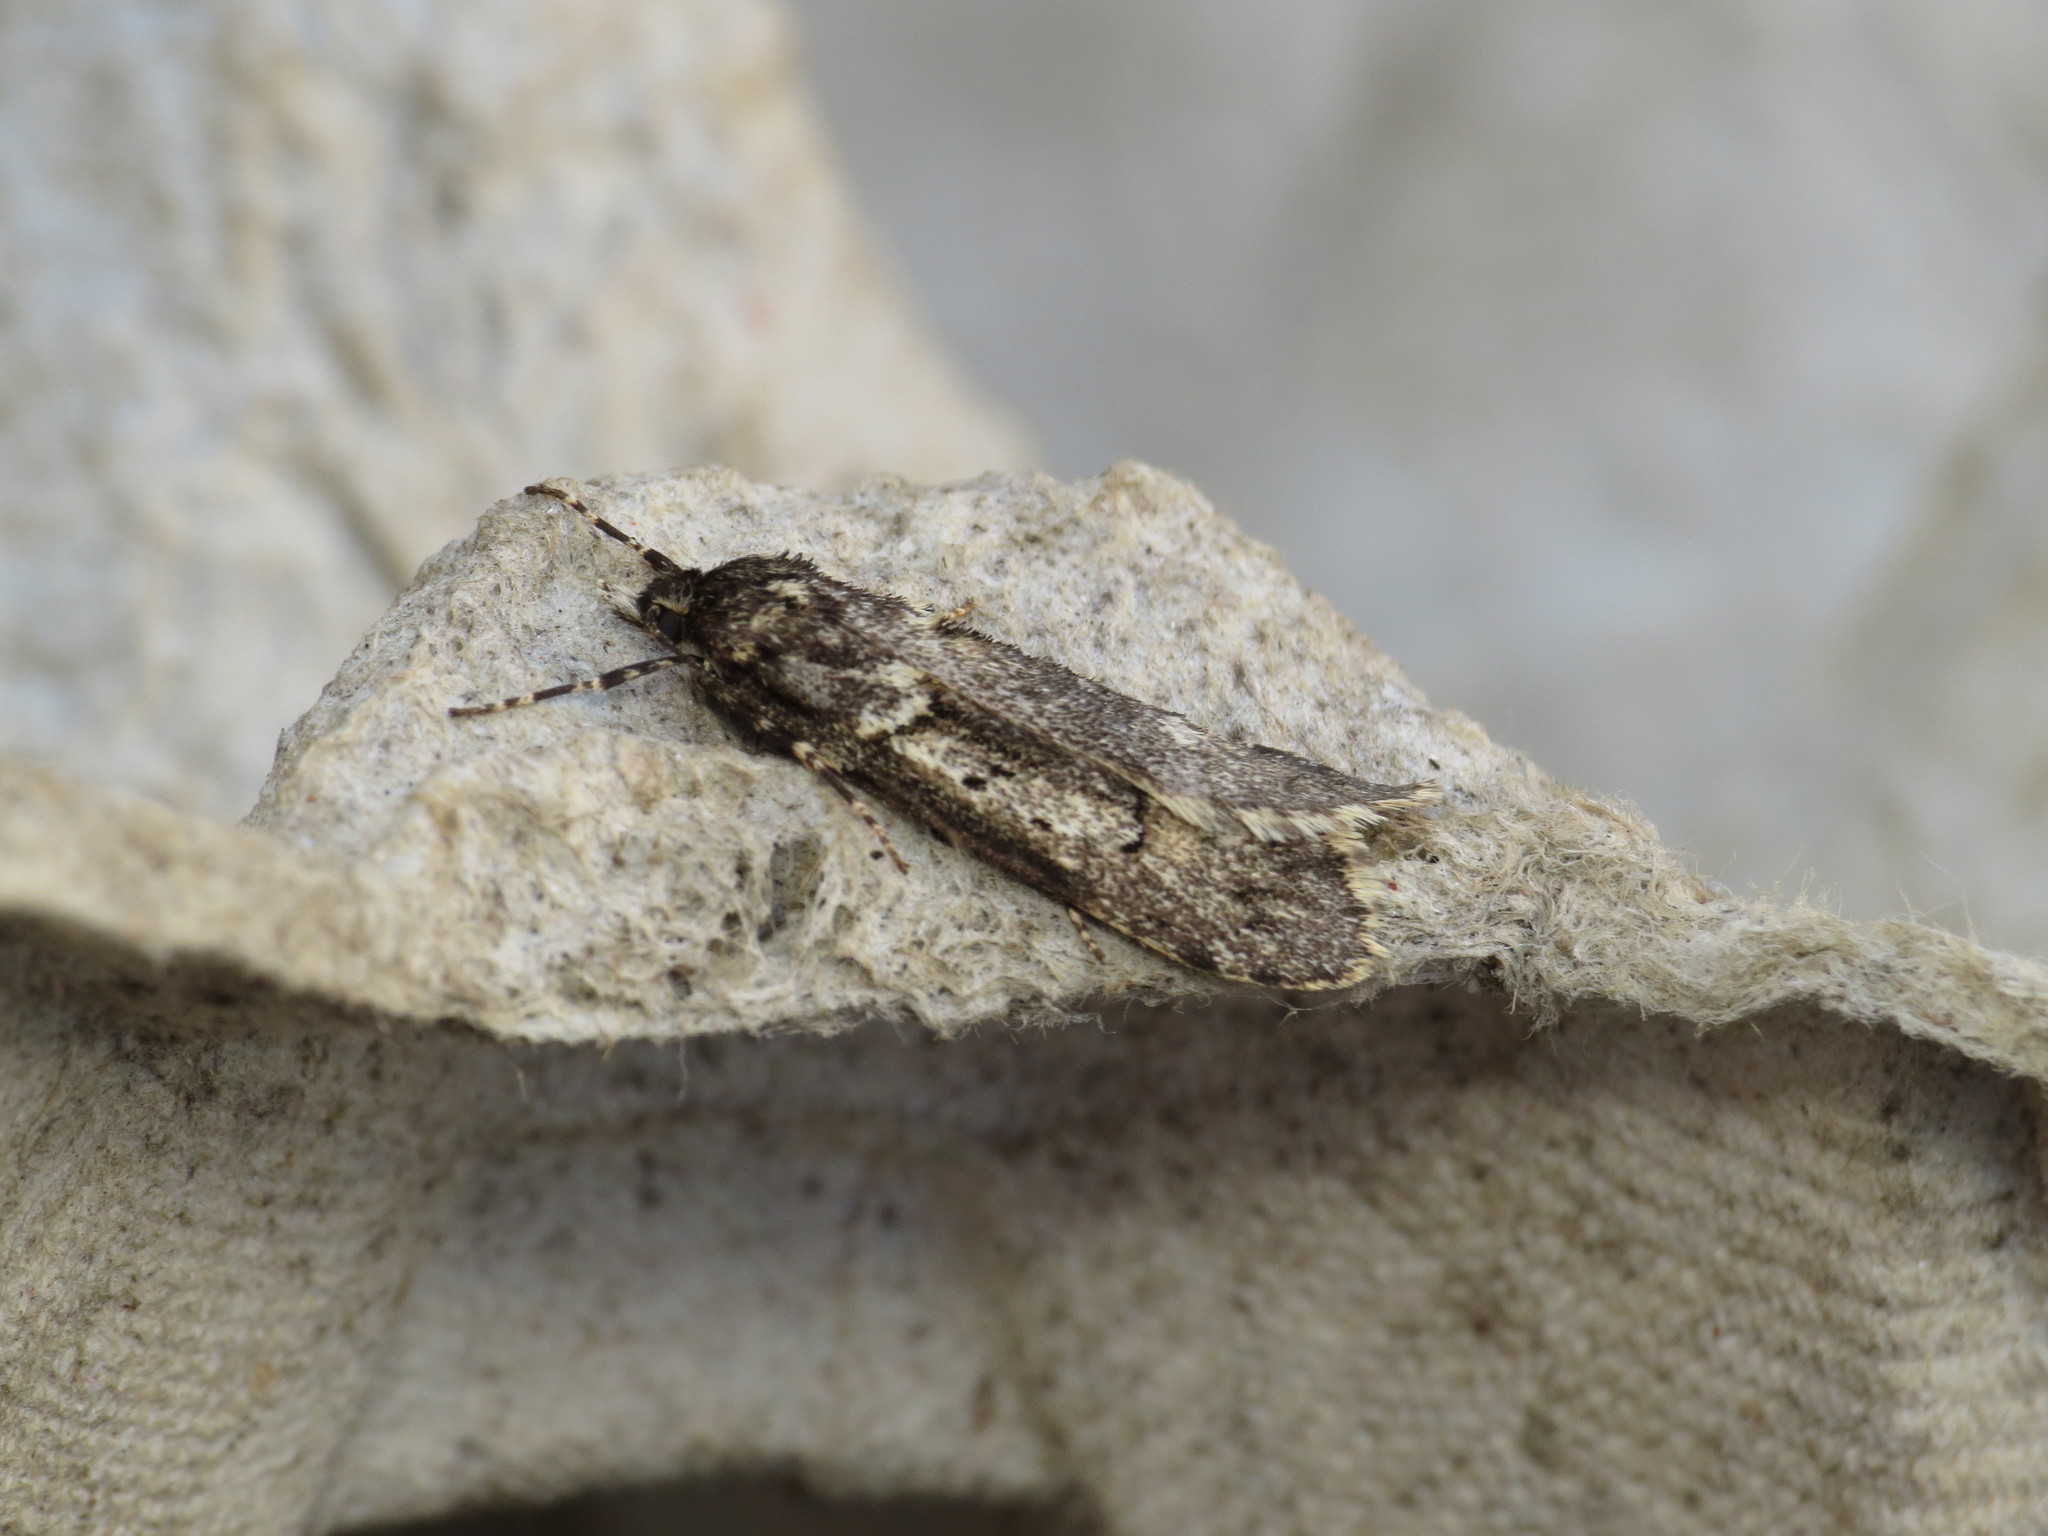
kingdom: Animalia
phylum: Arthropoda
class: Insecta
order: Lepidoptera
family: Lypusidae
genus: Diurnea
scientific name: Diurnea fagella
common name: March tubic
